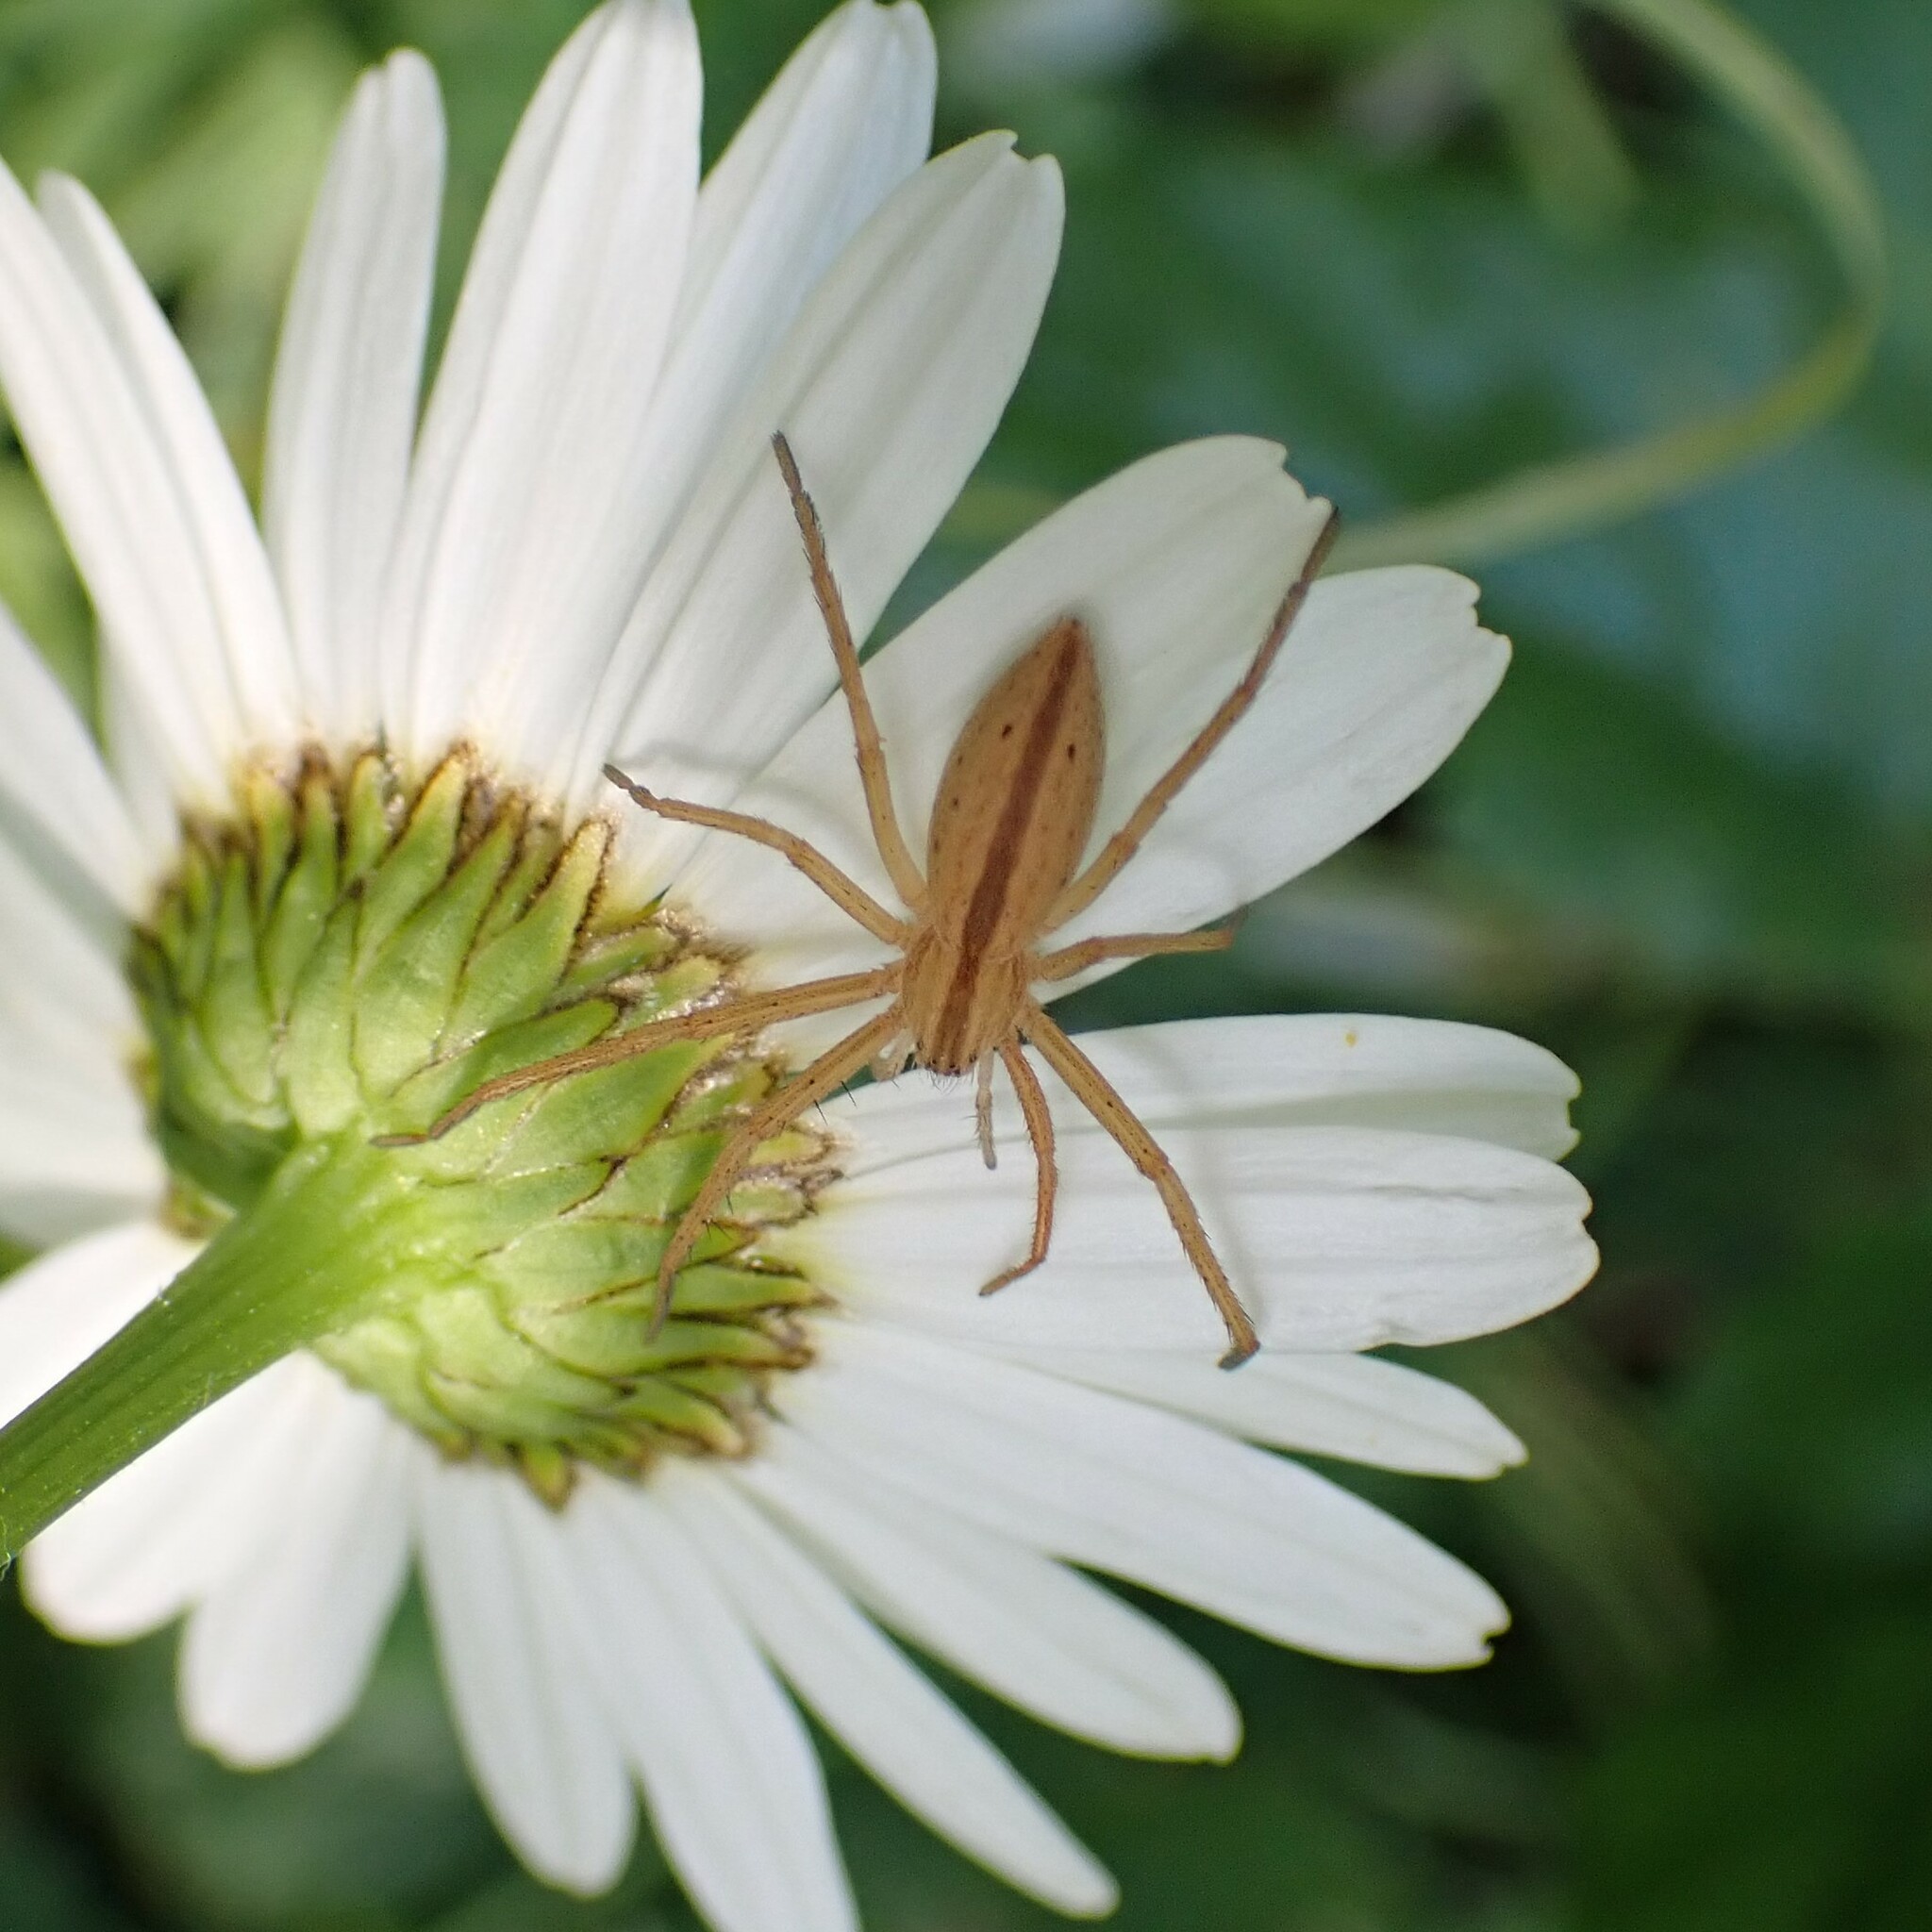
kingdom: Animalia
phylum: Arthropoda
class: Arachnida
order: Araneae
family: Philodromidae
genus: Tibellus
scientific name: Tibellus oblongus
